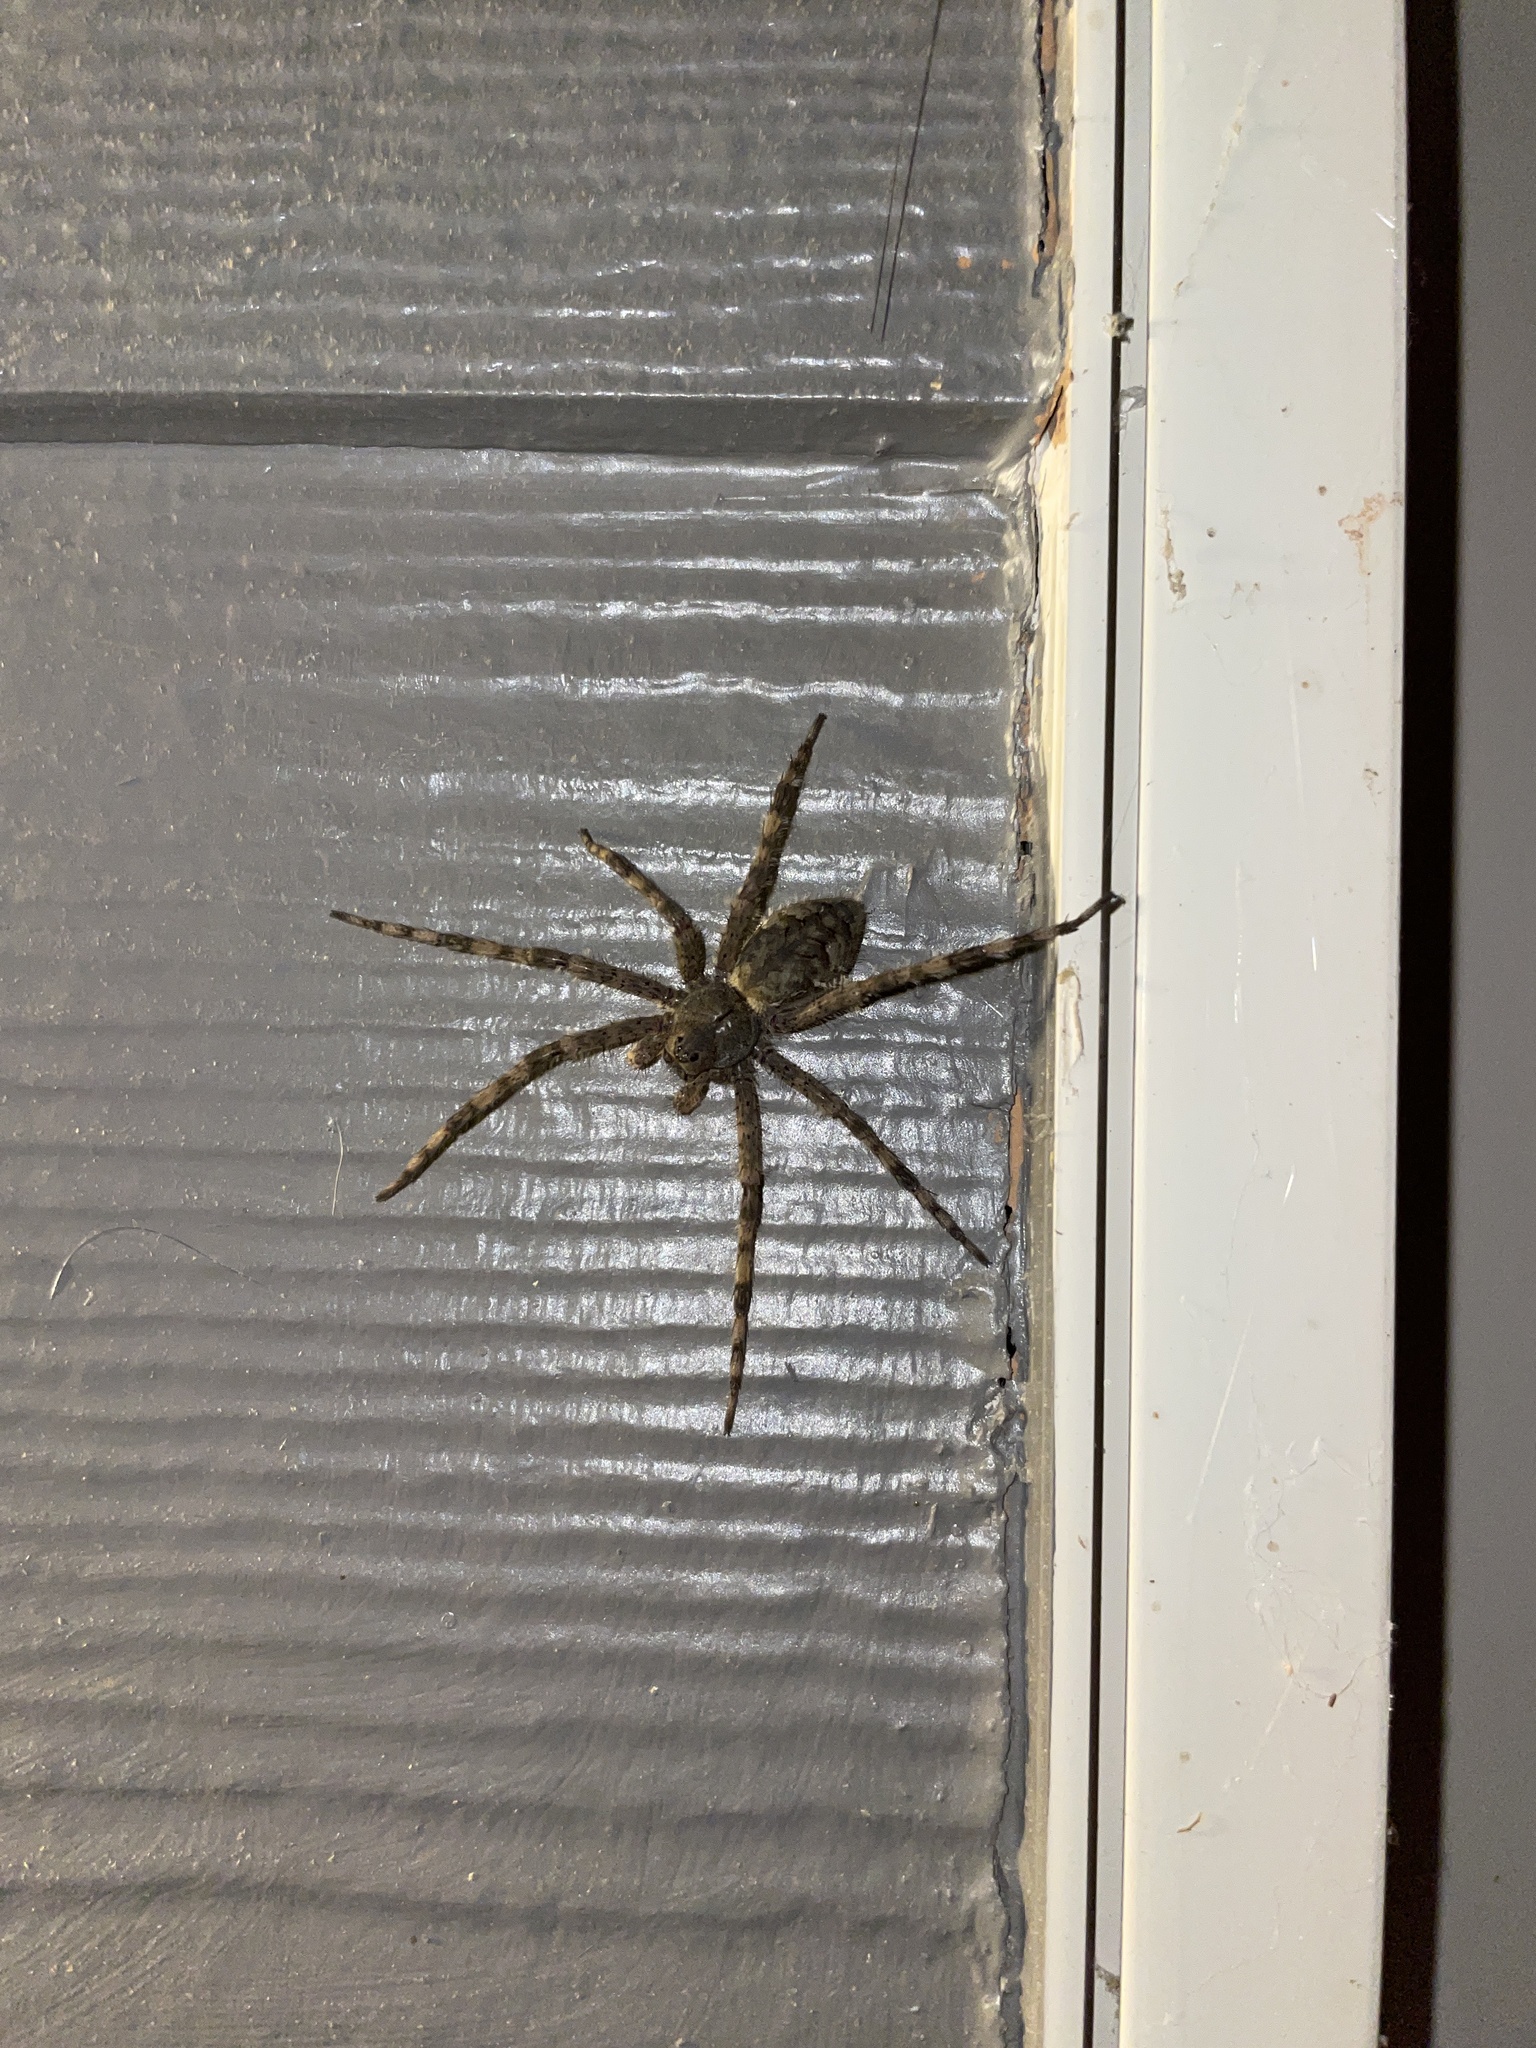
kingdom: Animalia
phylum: Arthropoda
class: Arachnida
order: Araneae
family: Pisauridae
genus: Dolomedes
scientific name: Dolomedes albineus
